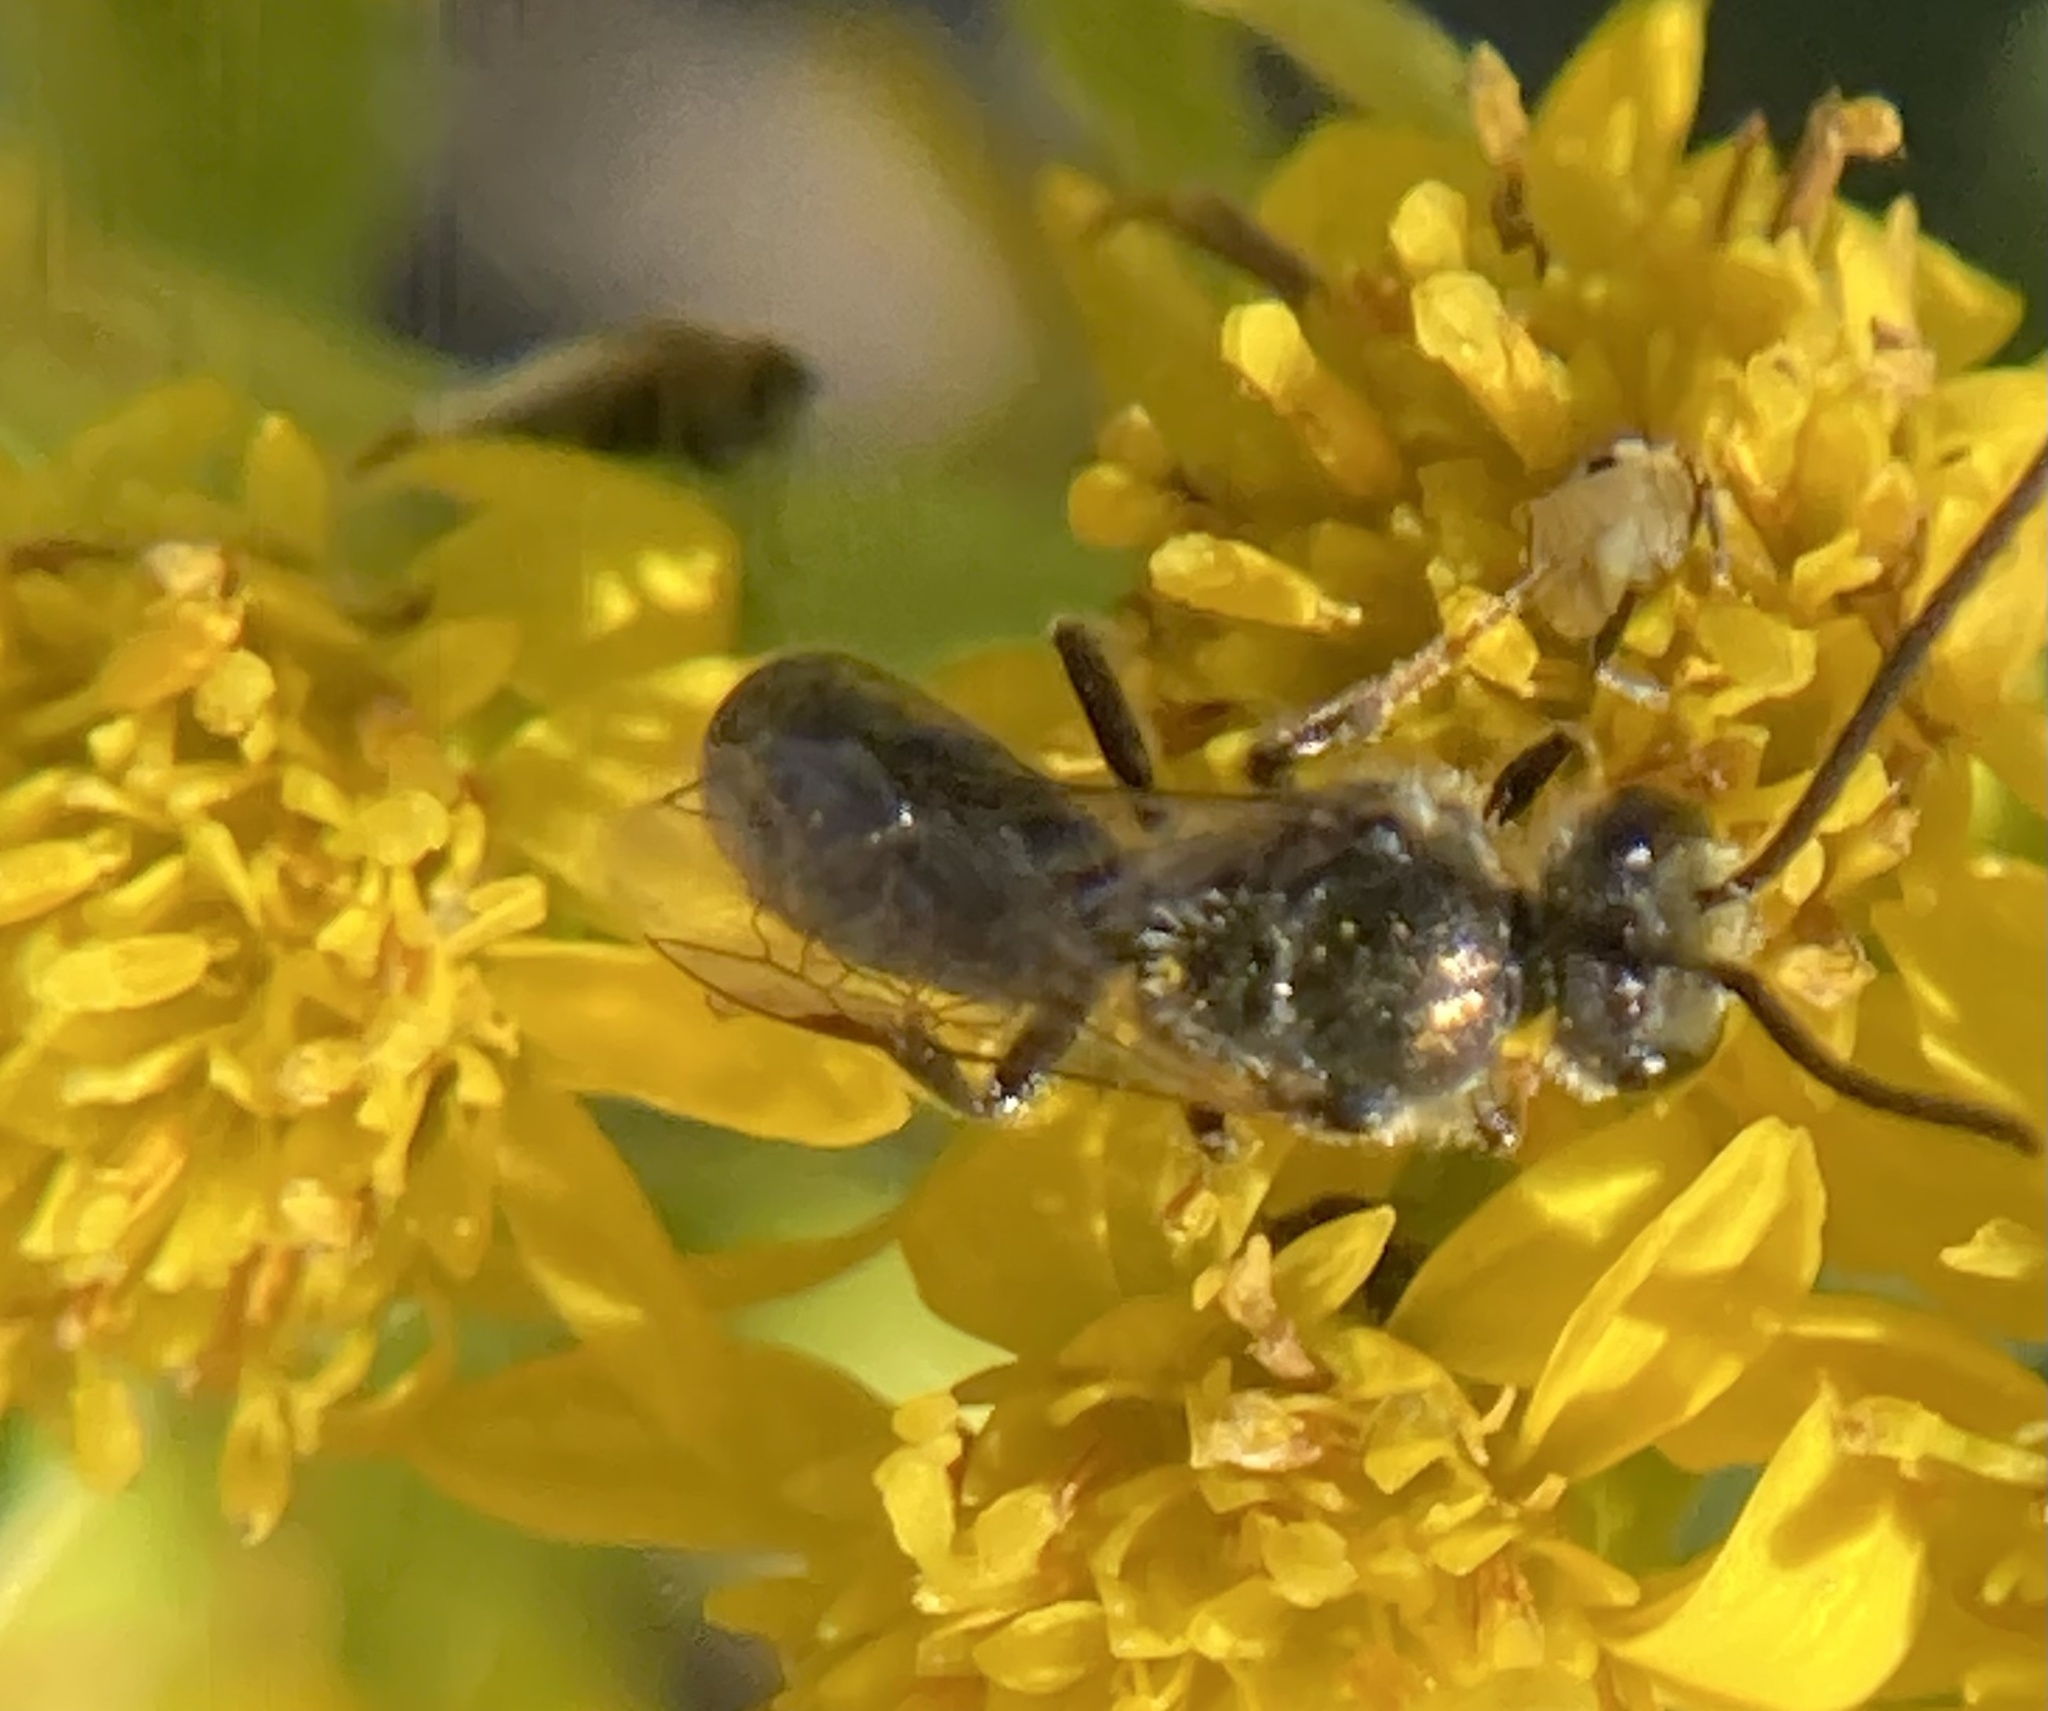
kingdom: Animalia
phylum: Arthropoda
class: Insecta
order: Hymenoptera
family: Halictidae
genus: Dialictus
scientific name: Dialictus
